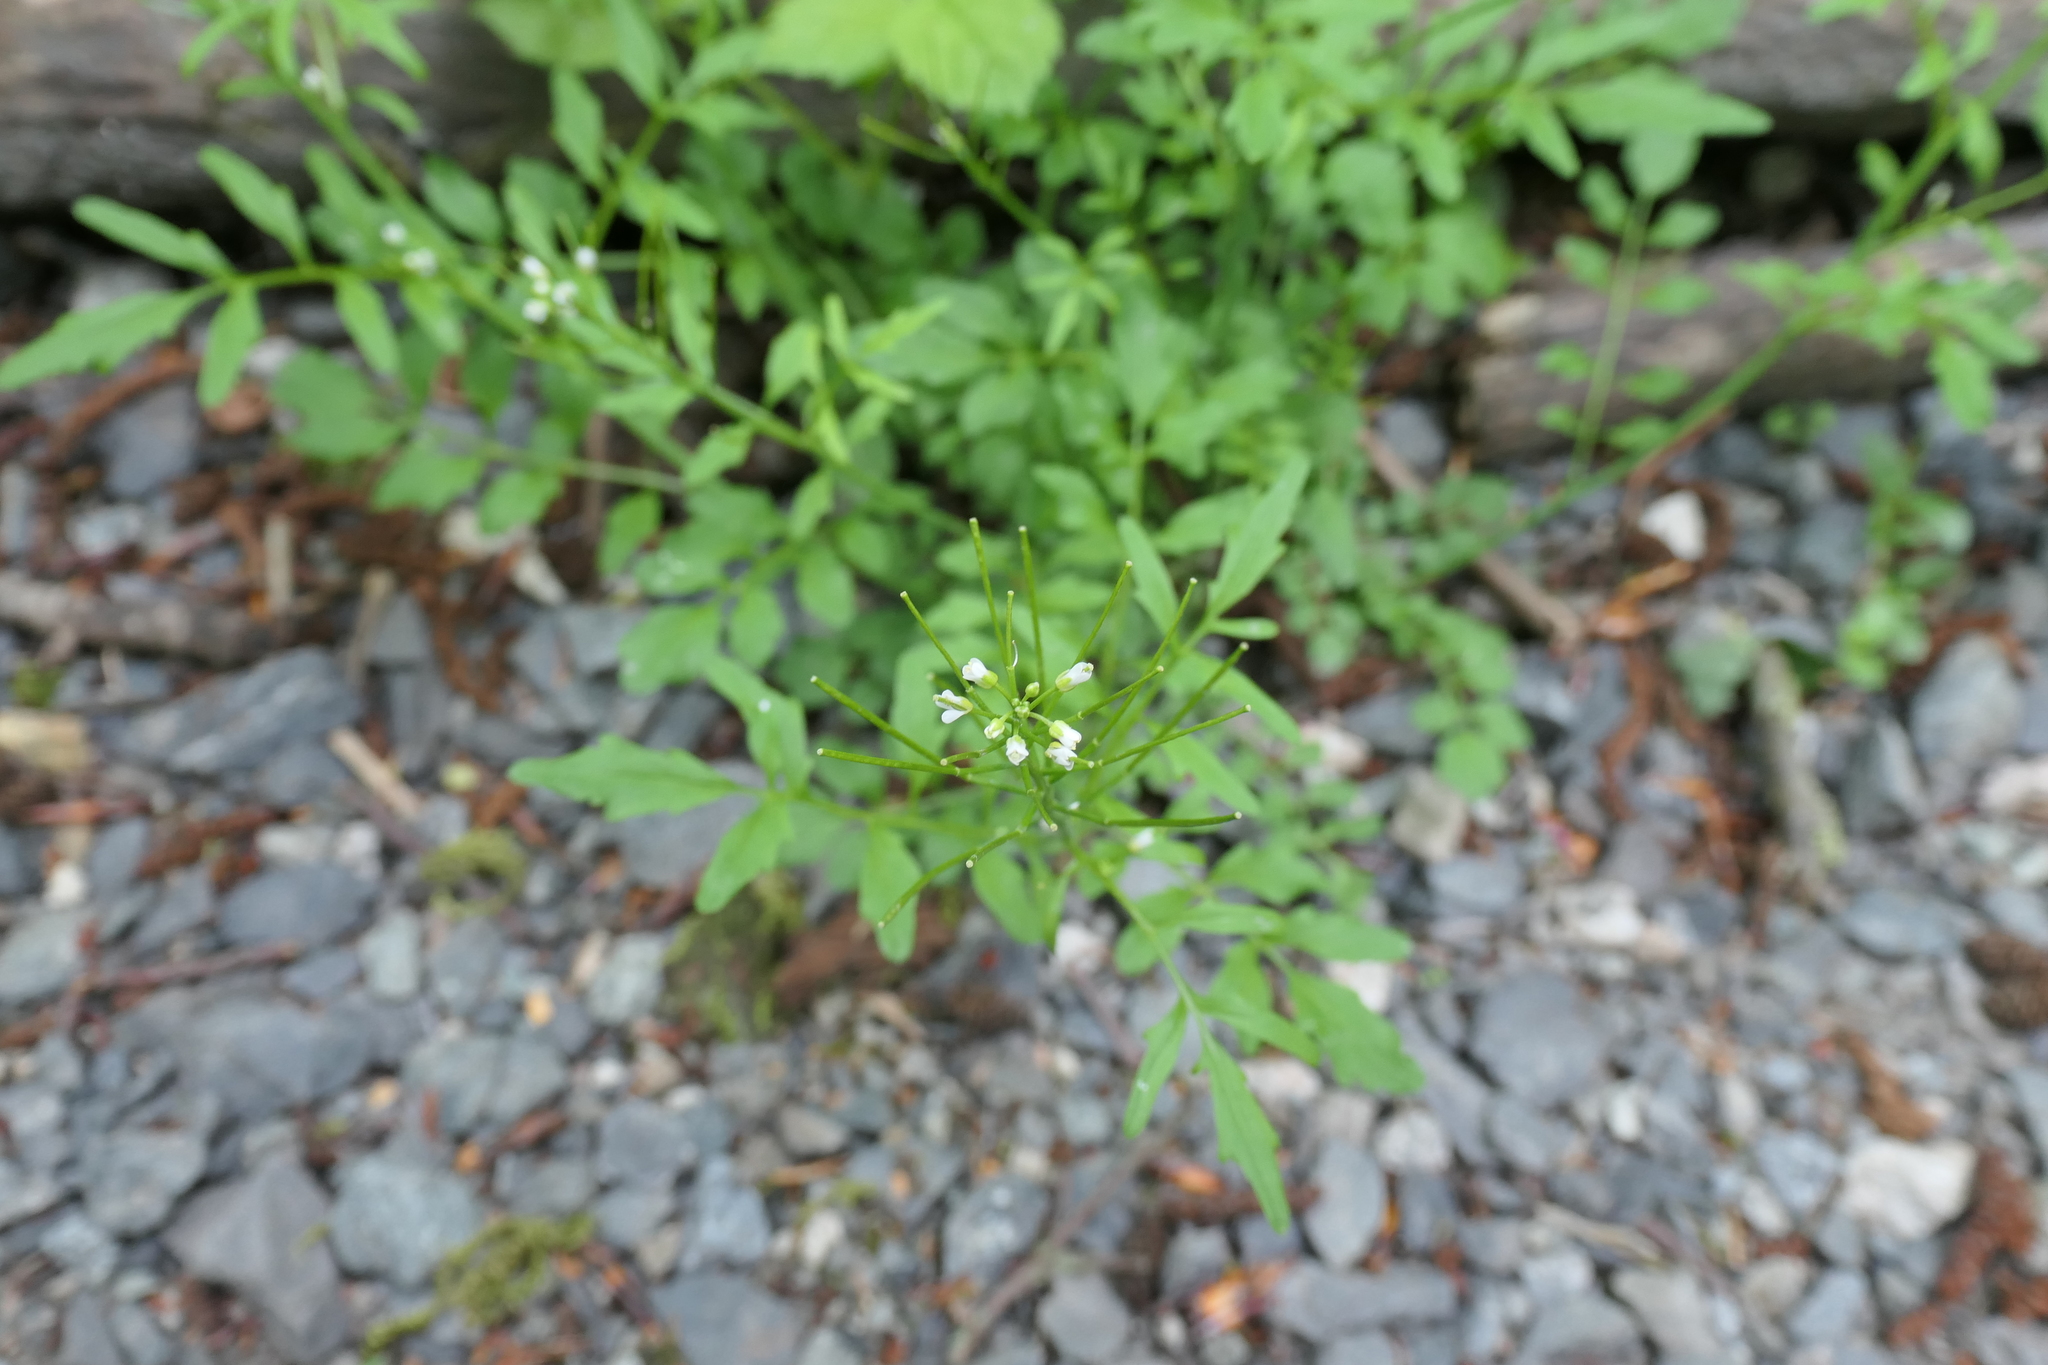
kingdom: Plantae
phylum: Tracheophyta
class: Magnoliopsida
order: Brassicales
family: Brassicaceae
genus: Cardamine
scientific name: Cardamine flexuosa
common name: Woodland bittercress
